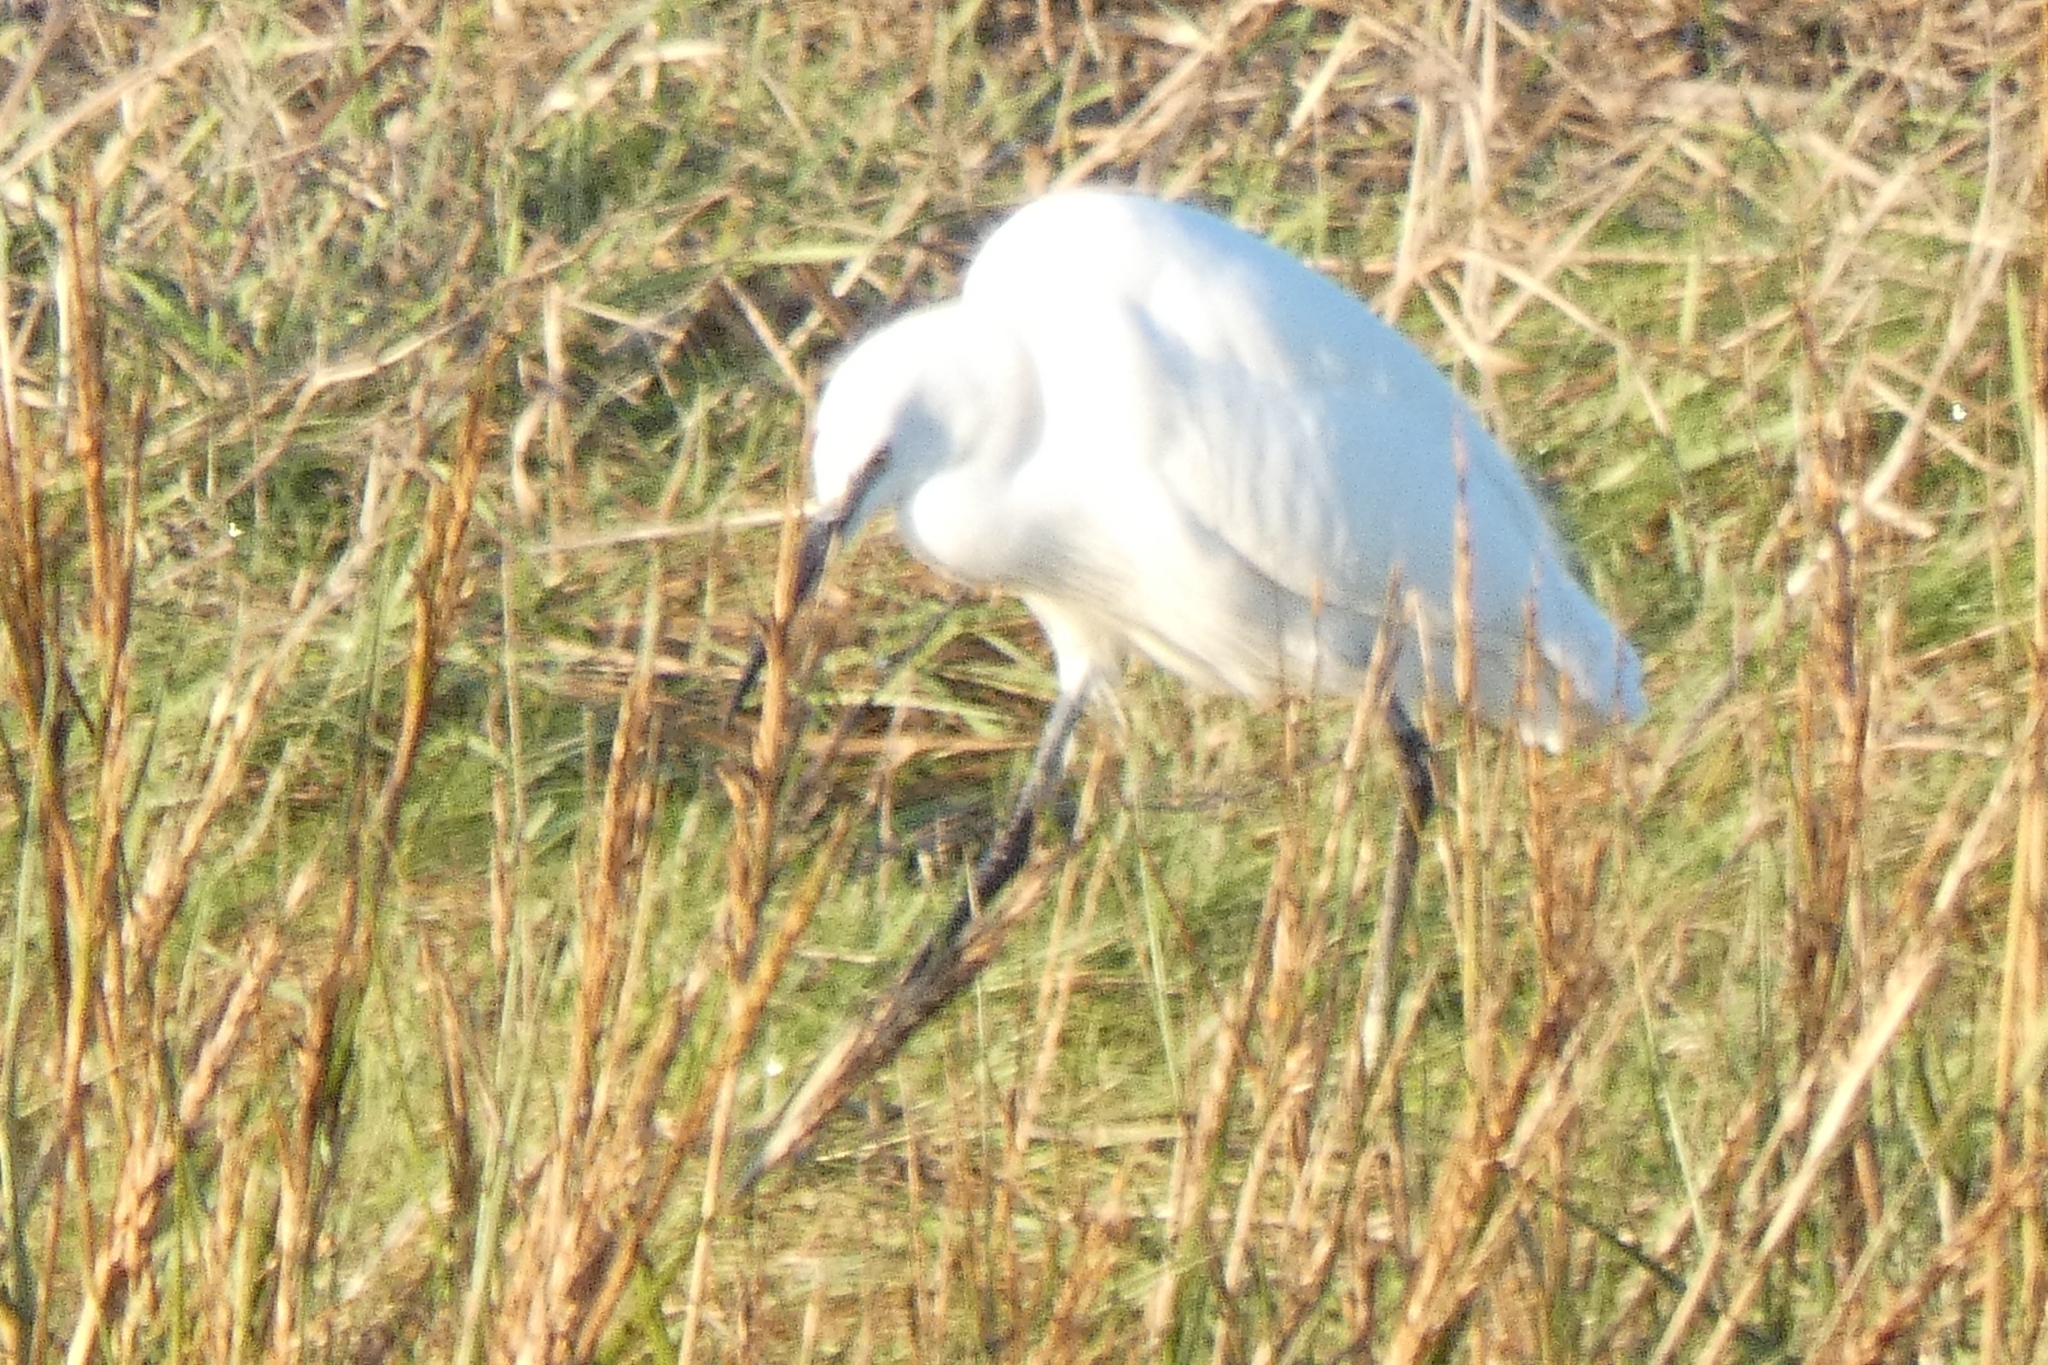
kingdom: Animalia
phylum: Chordata
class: Aves
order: Pelecaniformes
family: Ardeidae
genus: Egretta
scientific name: Egretta garzetta
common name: Little egret
